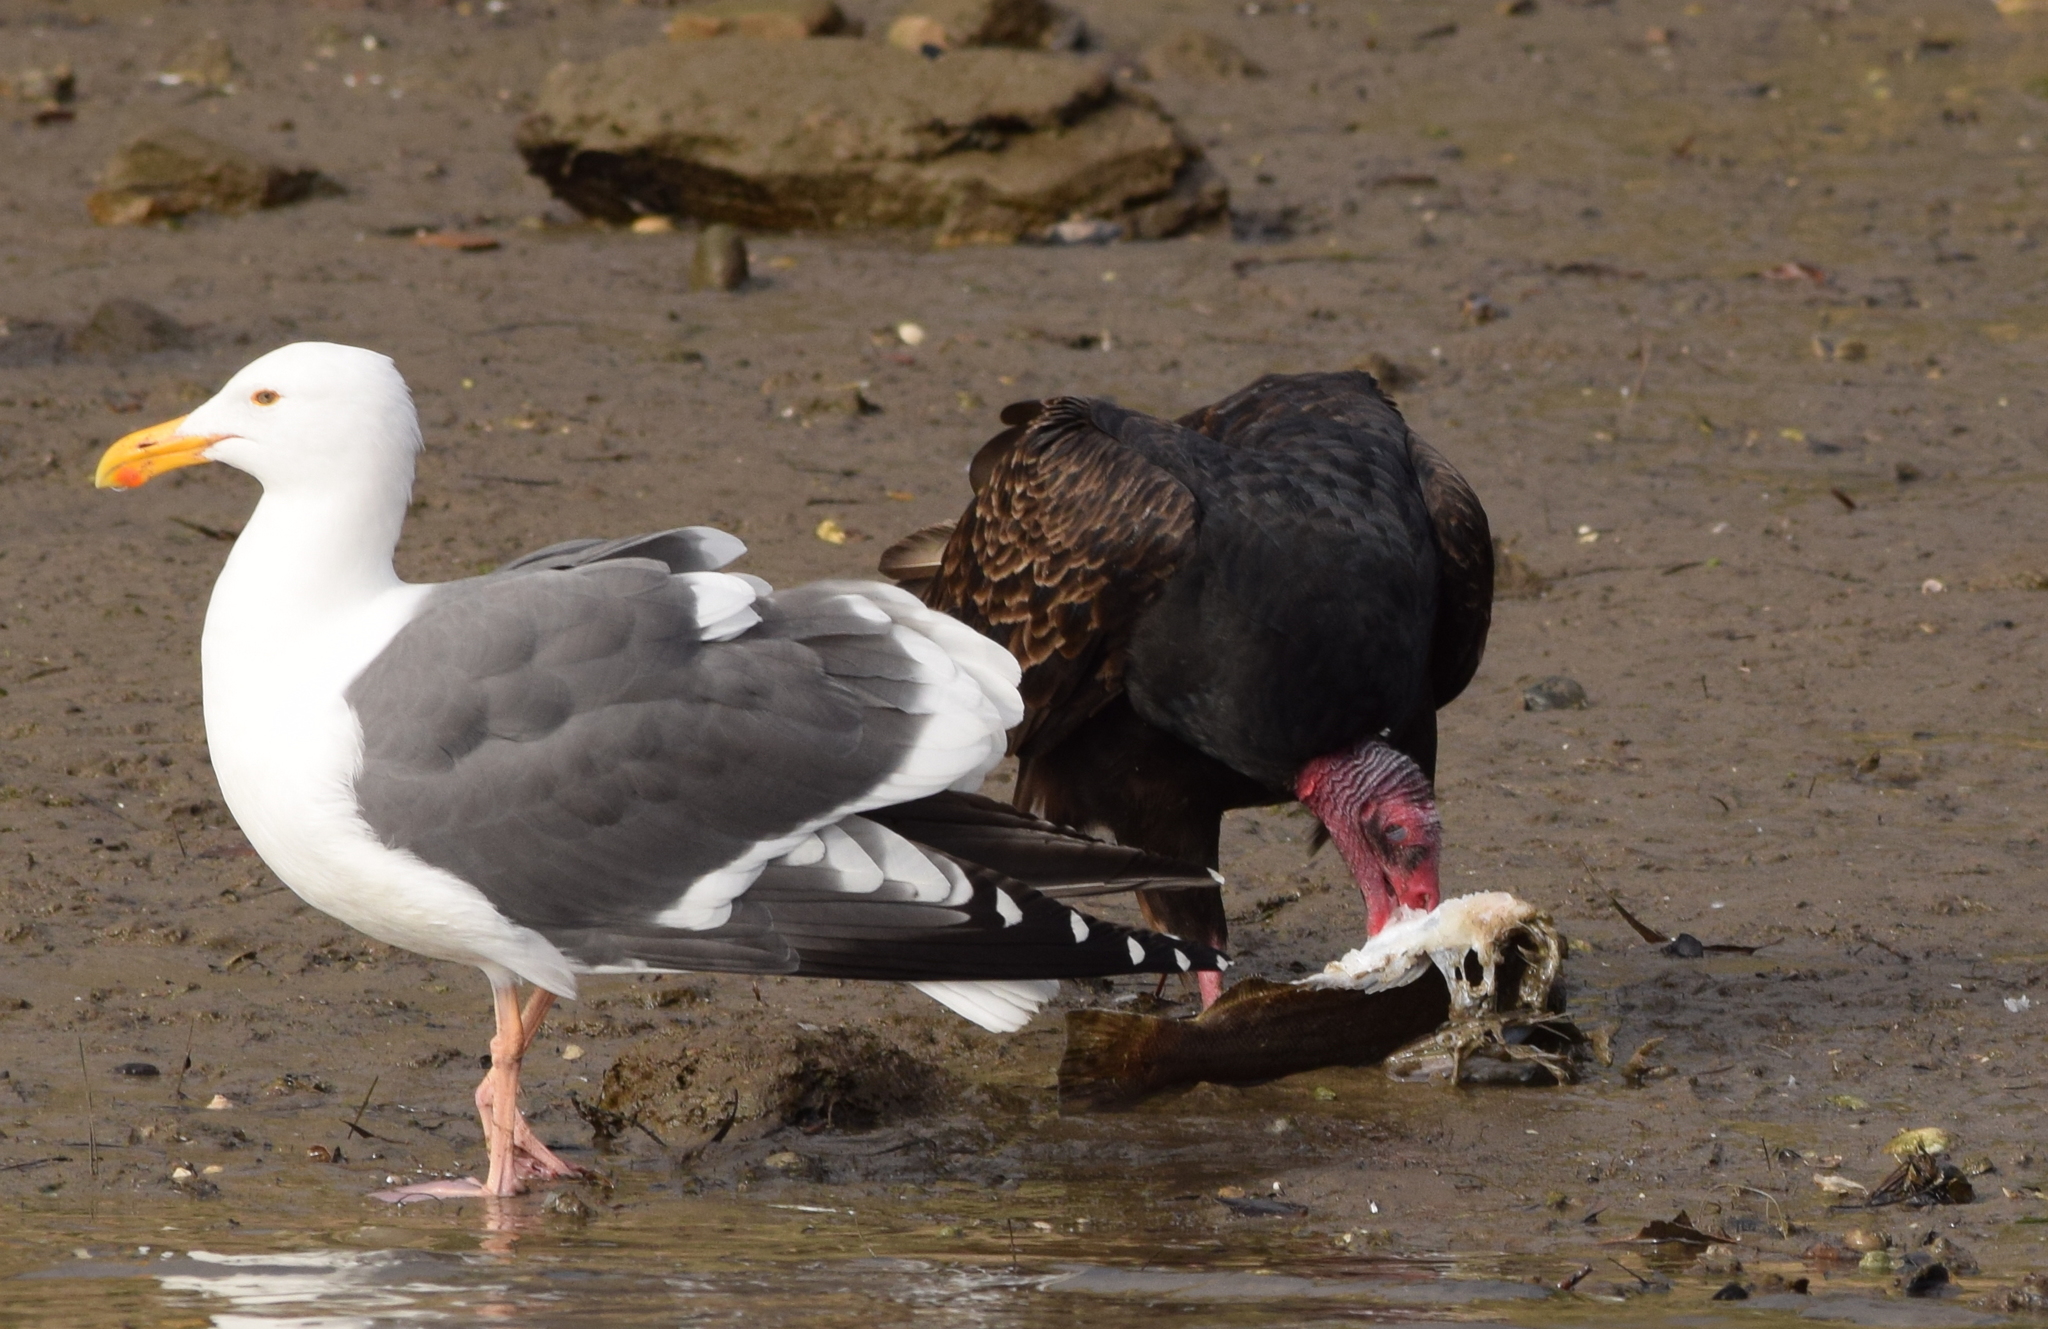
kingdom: Animalia
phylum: Chordata
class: Aves
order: Accipitriformes
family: Cathartidae
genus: Cathartes
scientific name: Cathartes aura
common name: Turkey vulture
